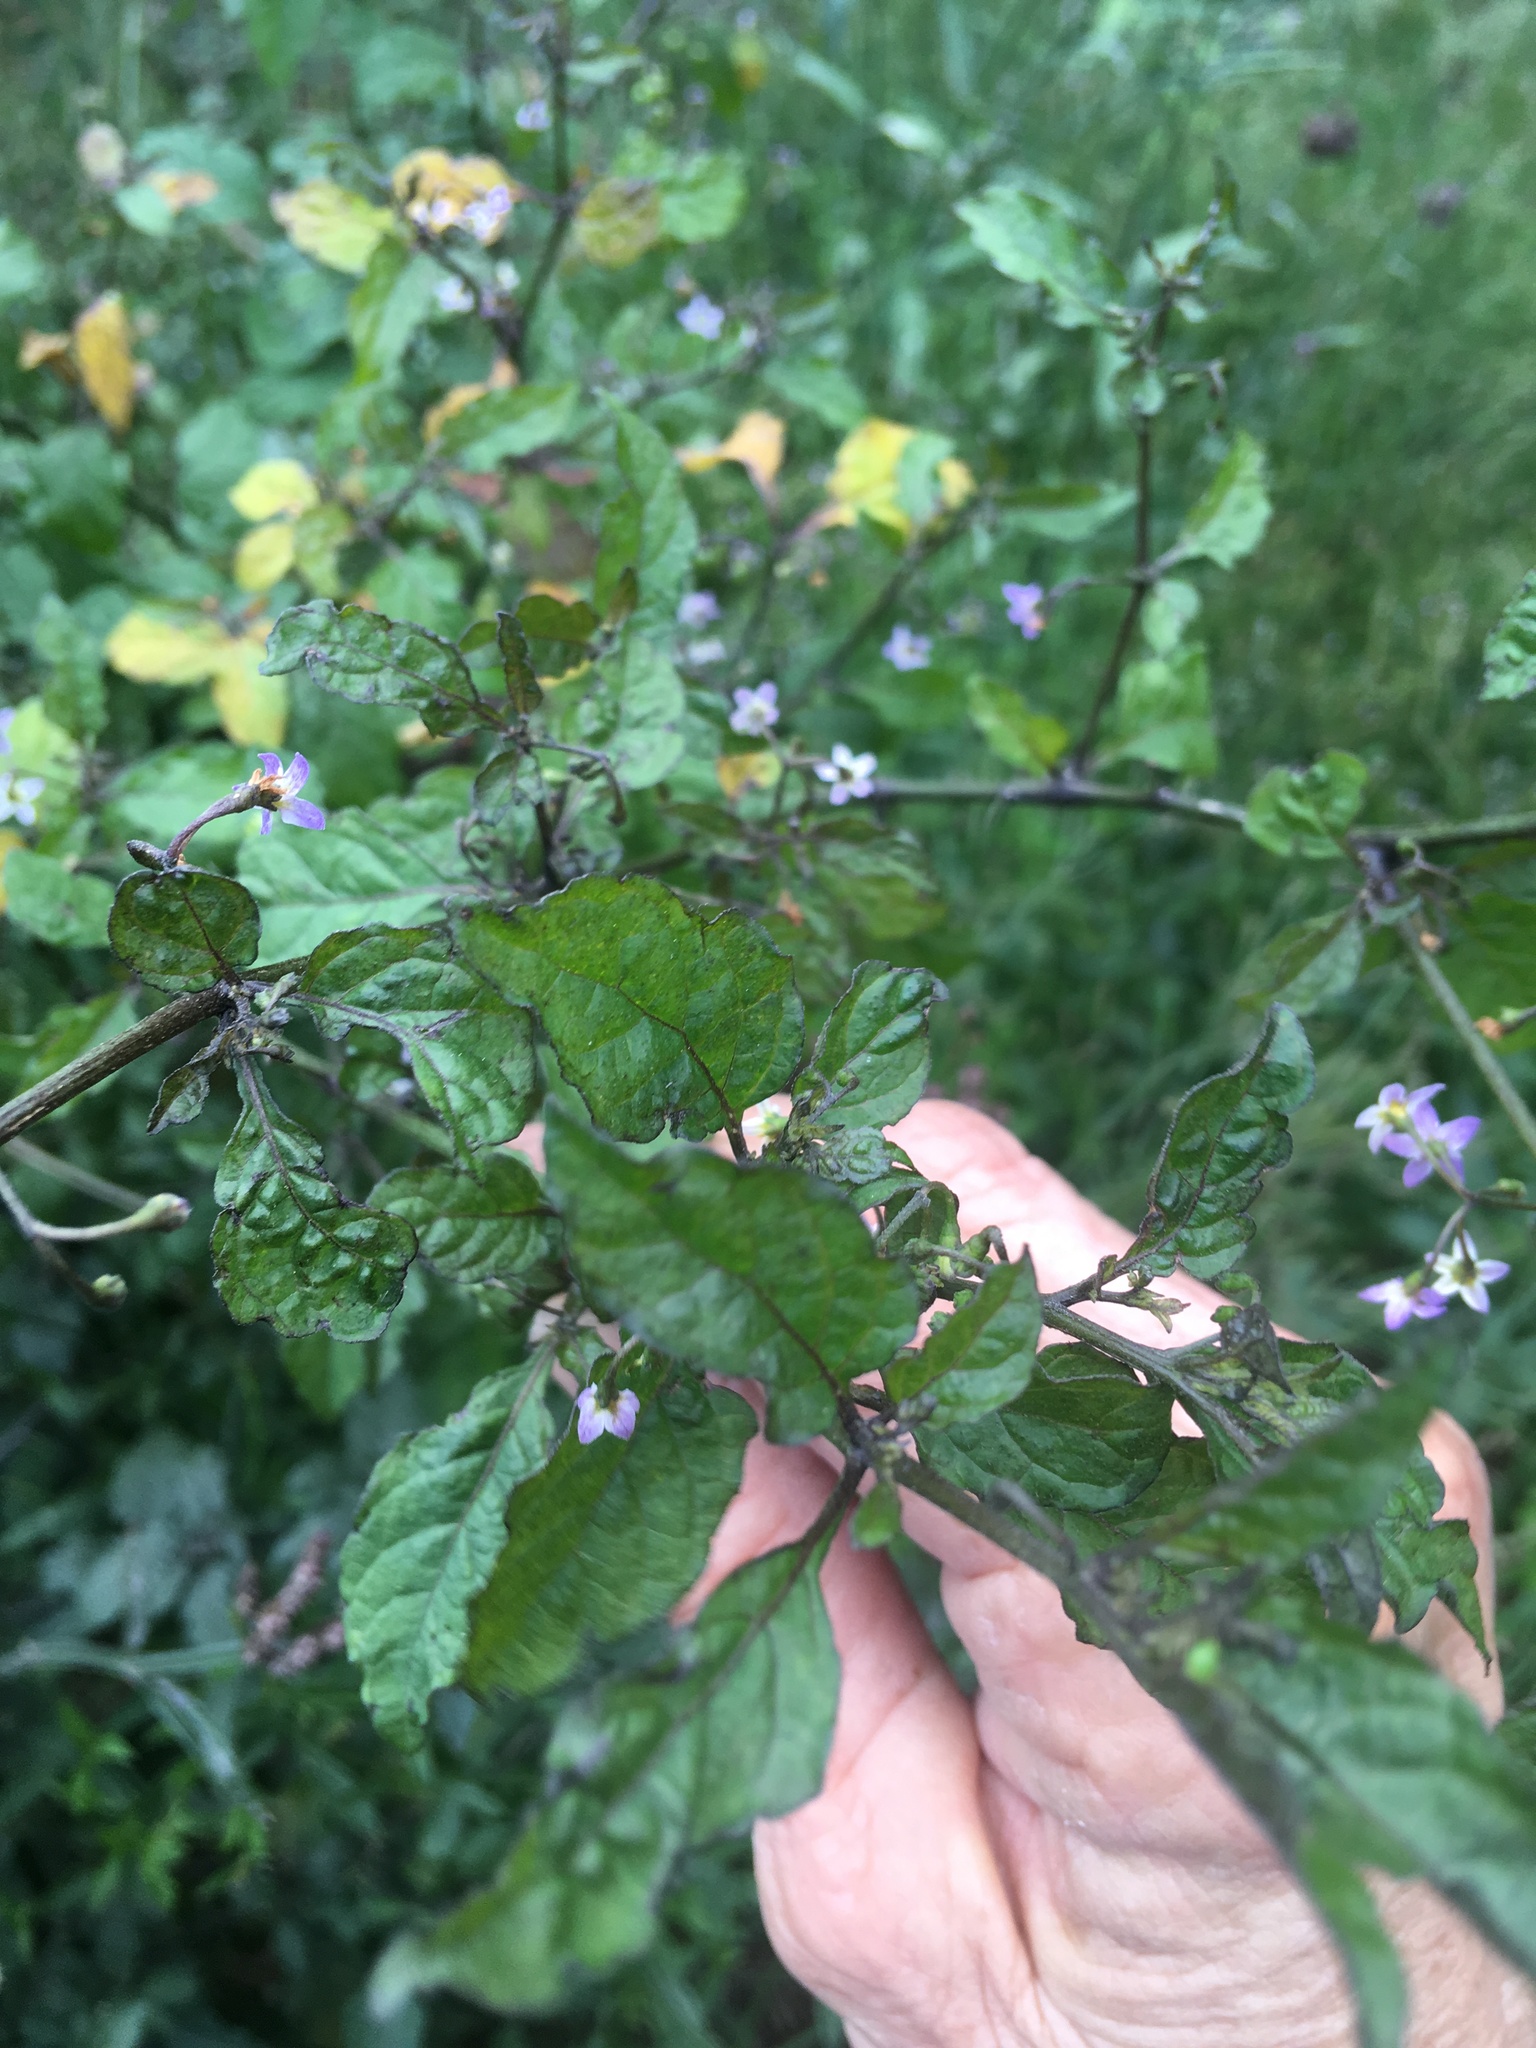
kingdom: Plantae
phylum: Tracheophyta
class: Magnoliopsida
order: Solanales
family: Solanaceae
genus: Solanum
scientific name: Solanum opacum
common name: Green-berry nightshade
